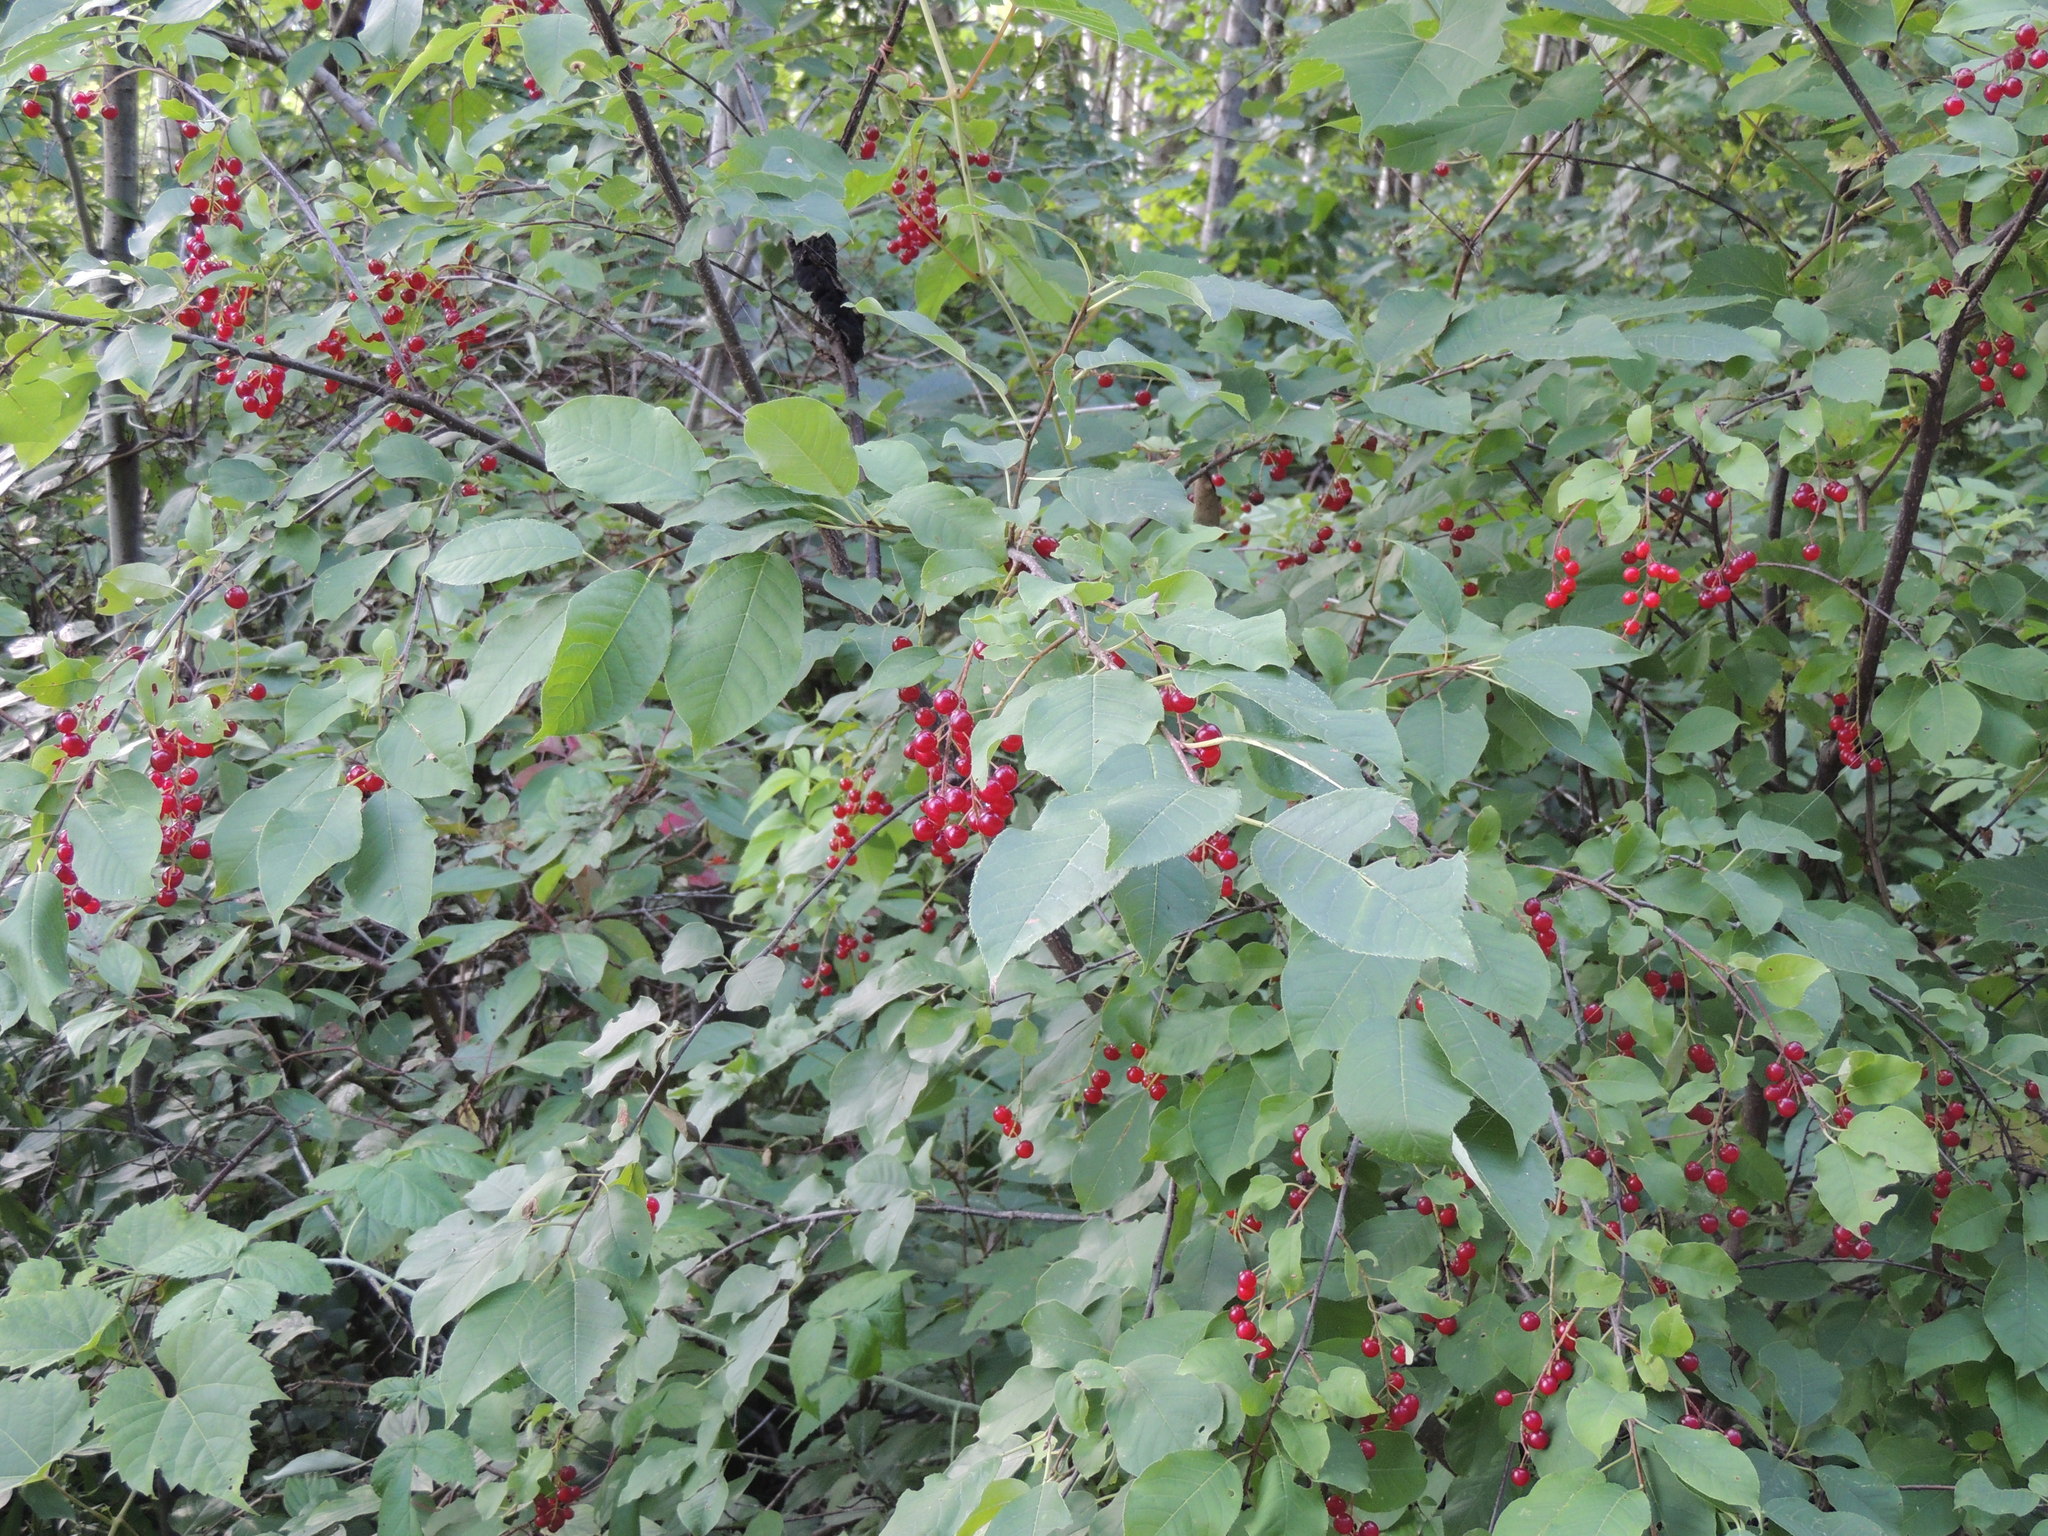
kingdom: Plantae
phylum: Tracheophyta
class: Magnoliopsida
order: Rosales
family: Rosaceae
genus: Prunus
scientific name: Prunus virginiana
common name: Chokecherry
